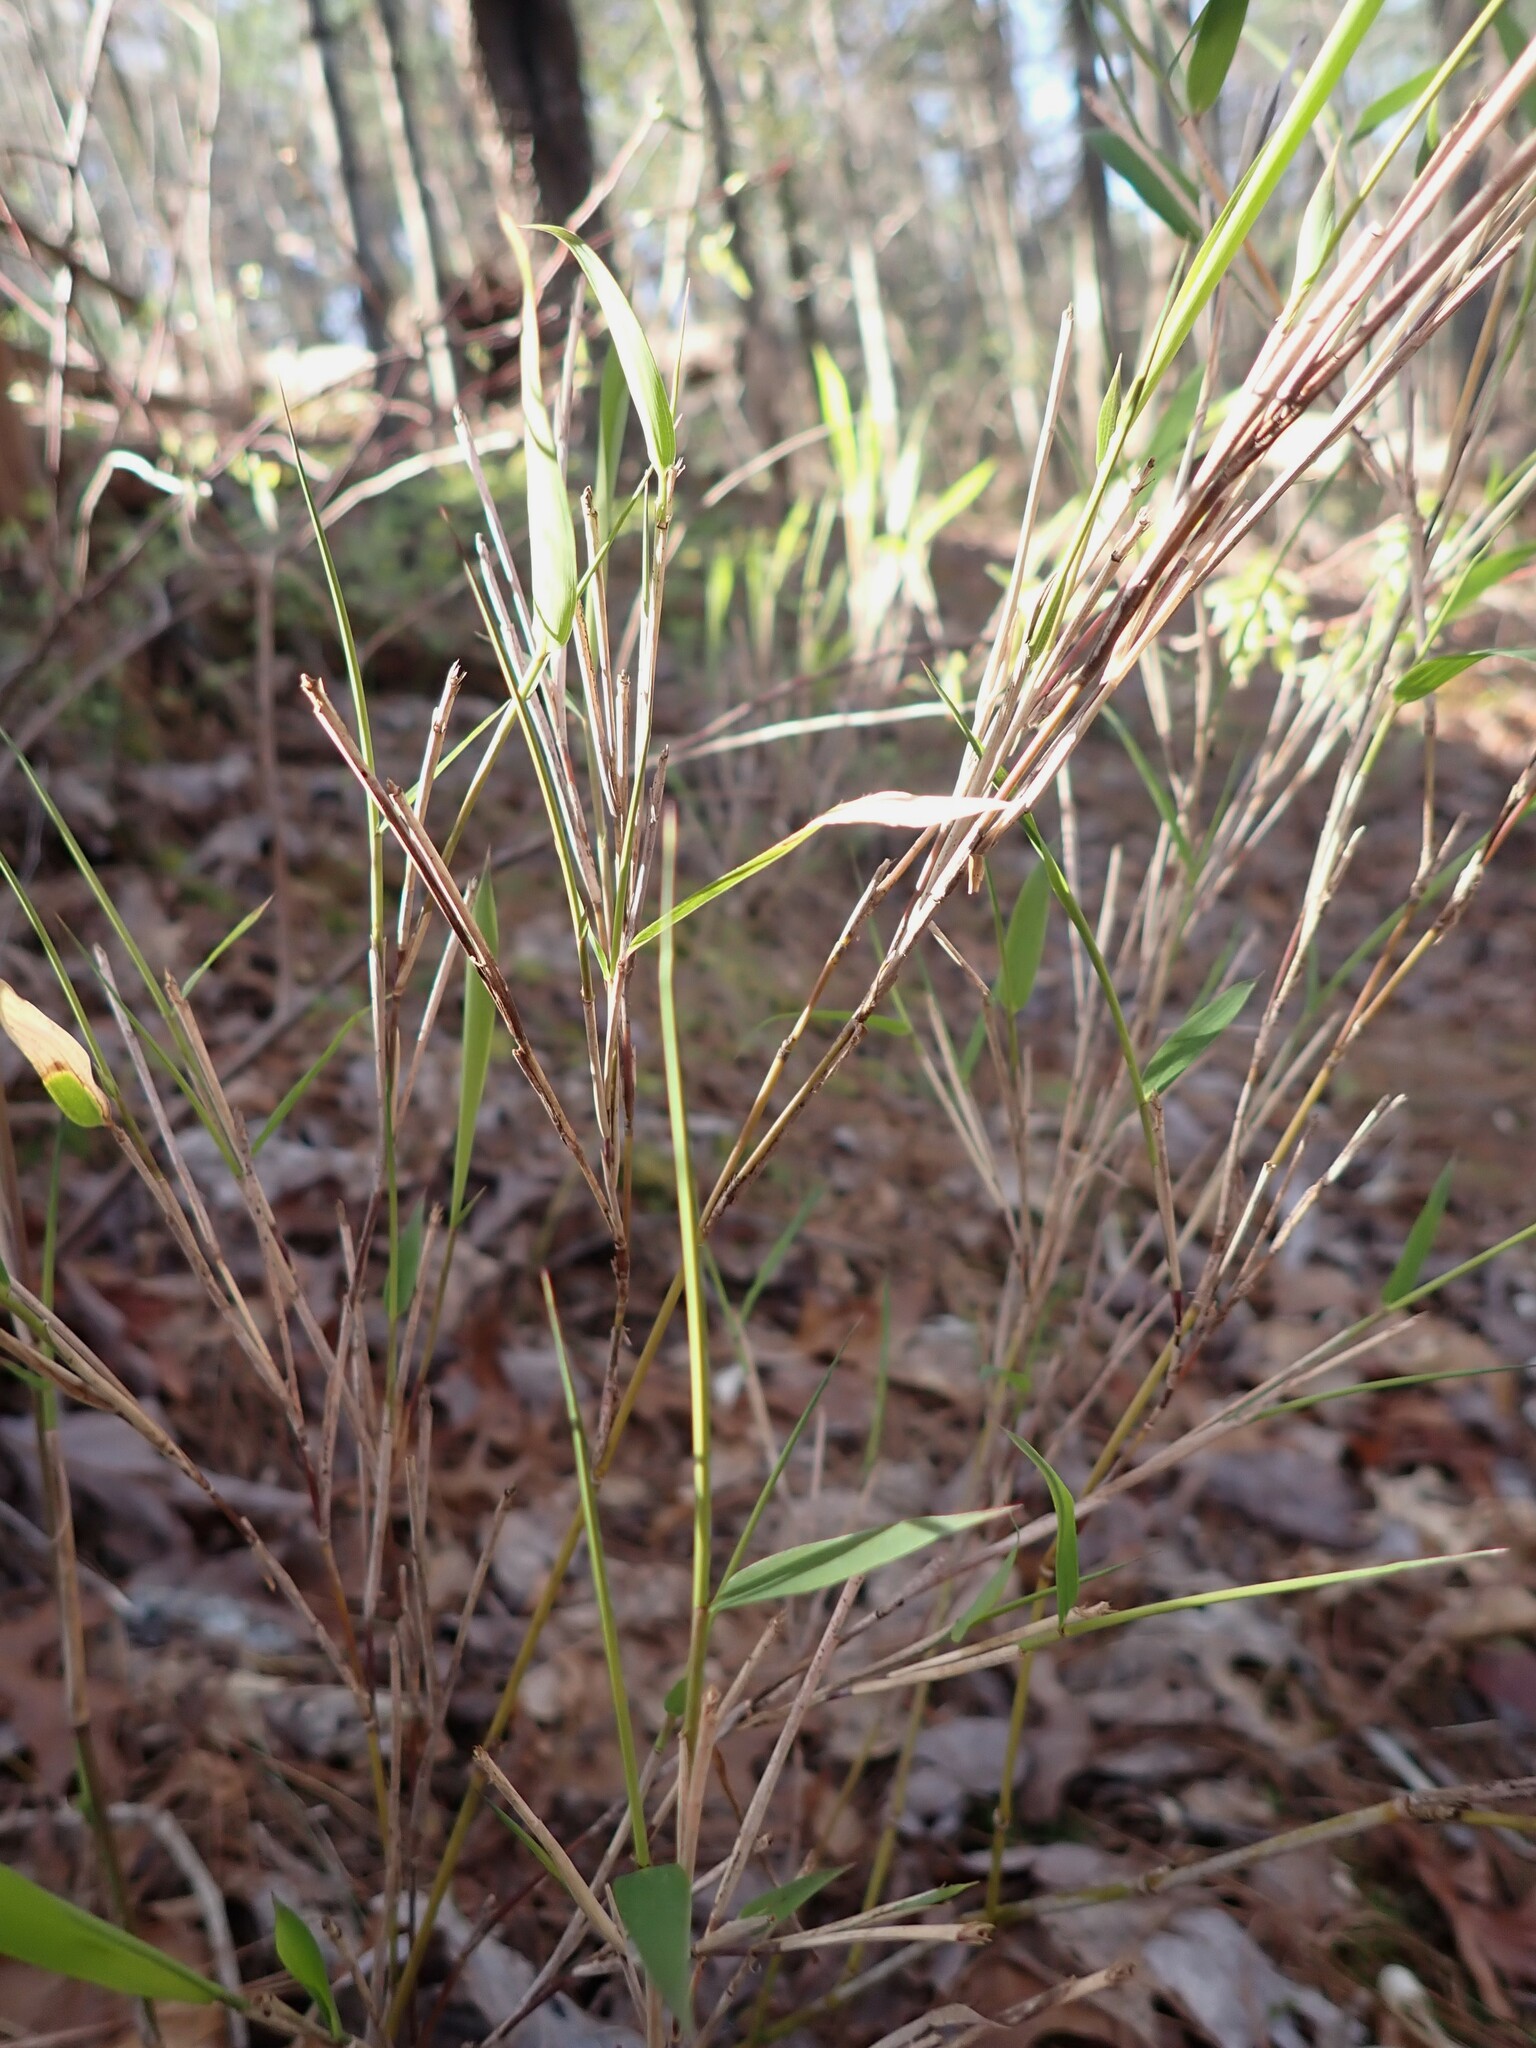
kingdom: Plantae
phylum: Tracheophyta
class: Liliopsida
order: Poales
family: Poaceae
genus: Arundinaria
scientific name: Arundinaria appalachiana
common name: Hill cane
